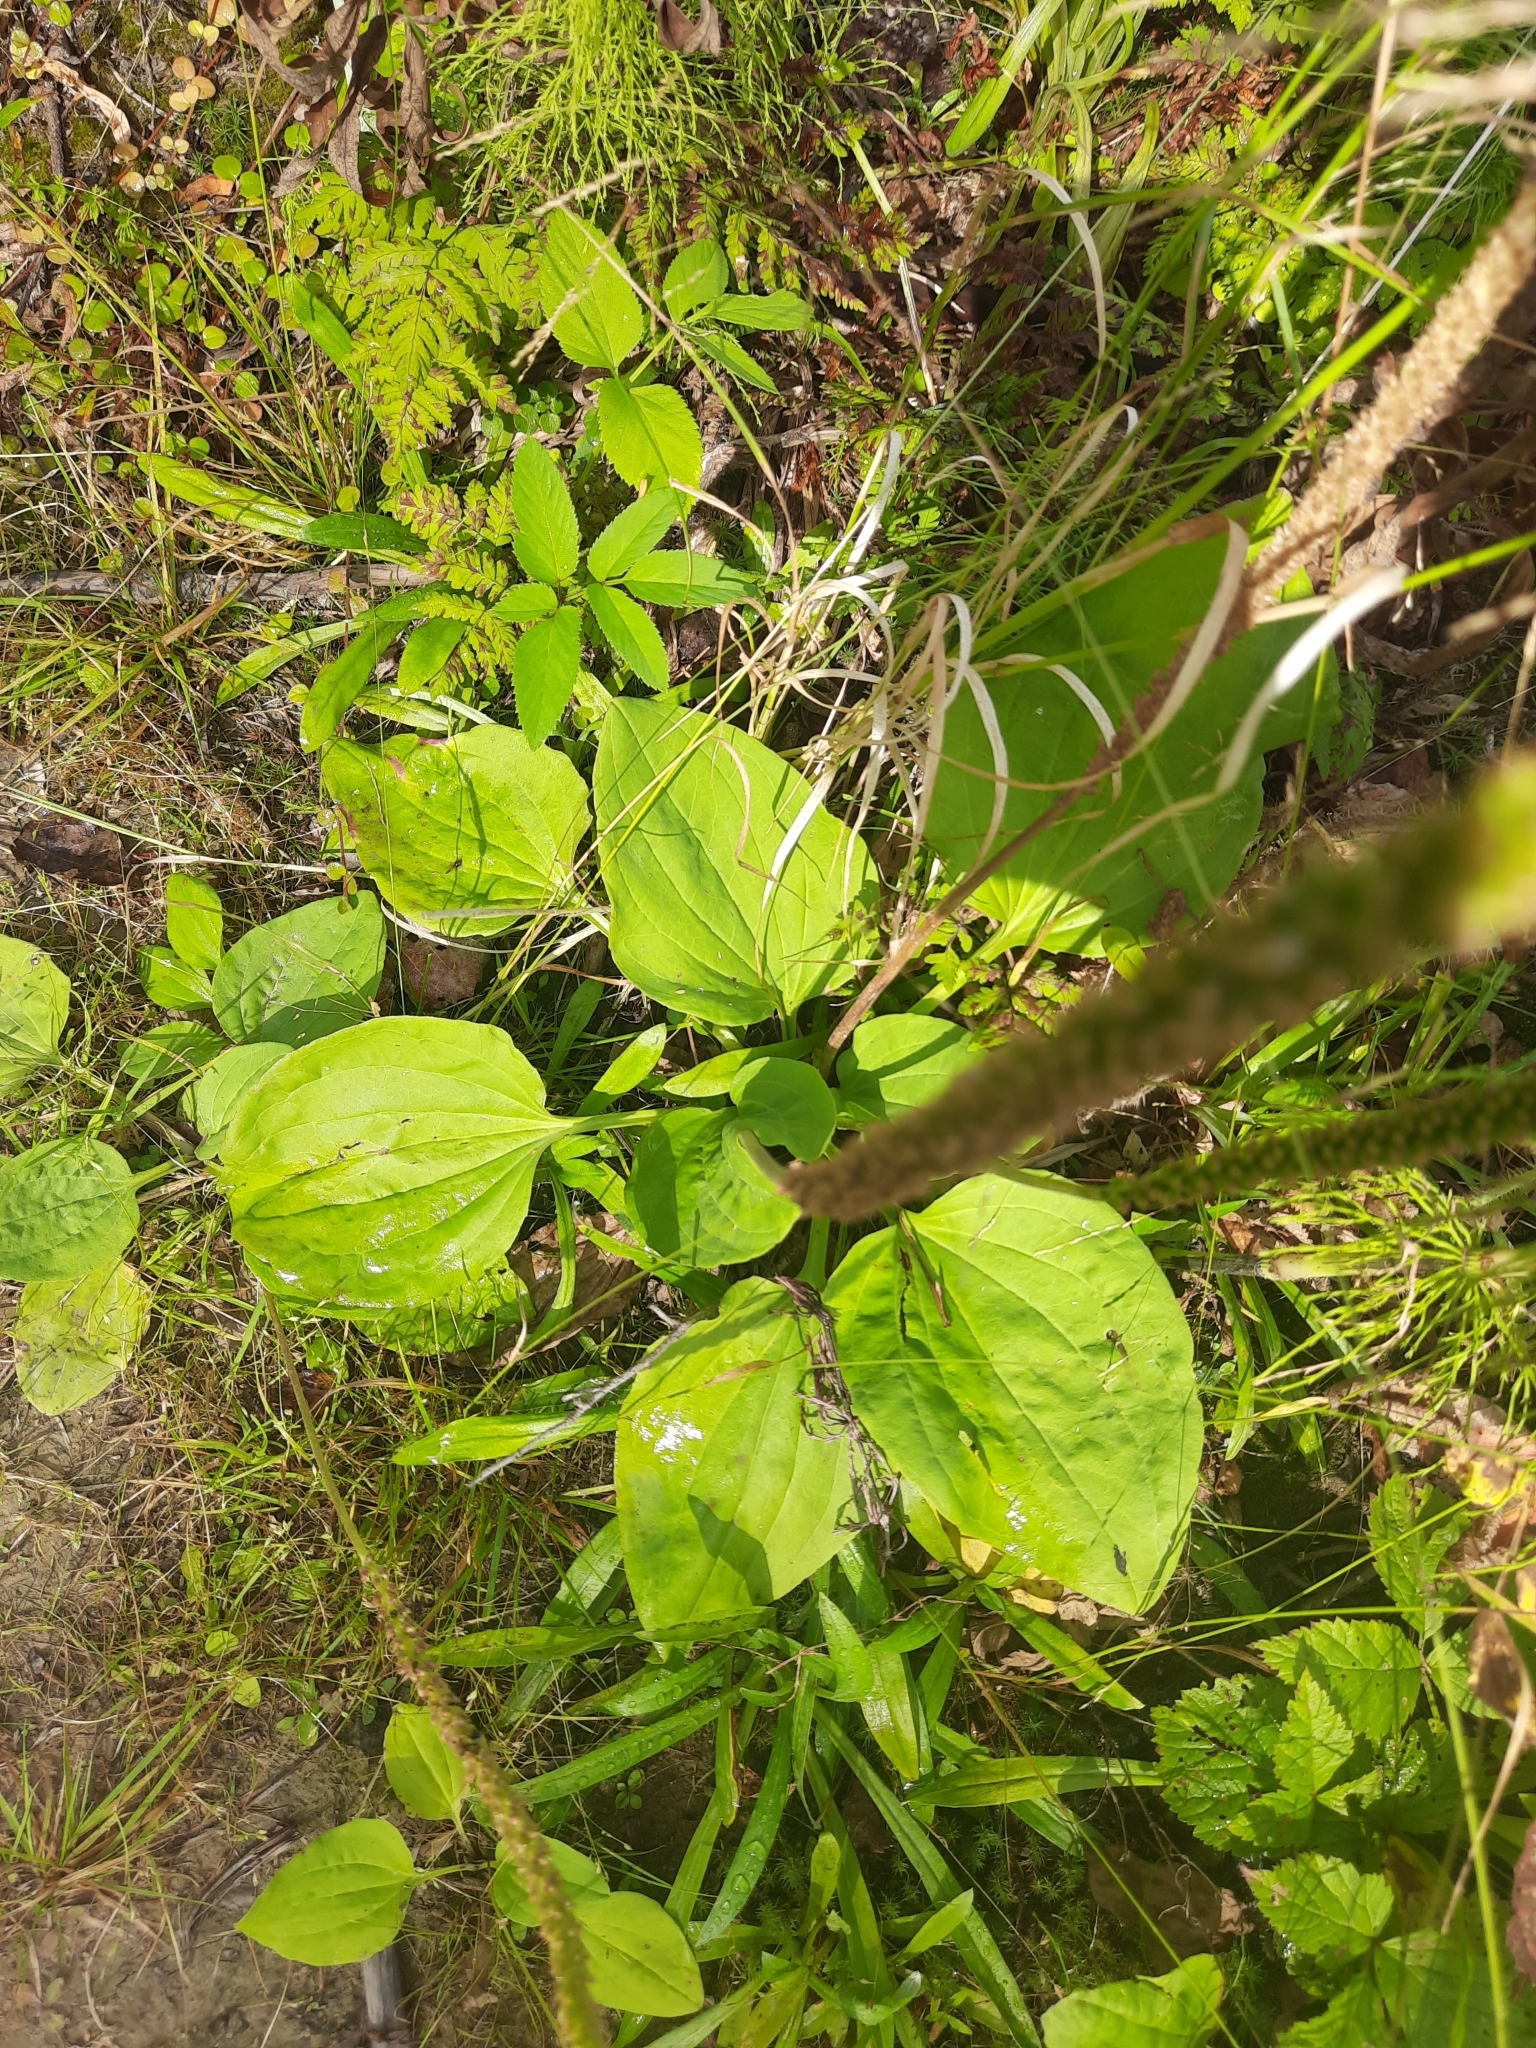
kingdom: Plantae
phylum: Tracheophyta
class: Magnoliopsida
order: Lamiales
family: Plantaginaceae
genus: Plantago
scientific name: Plantago major
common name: Common plantain
